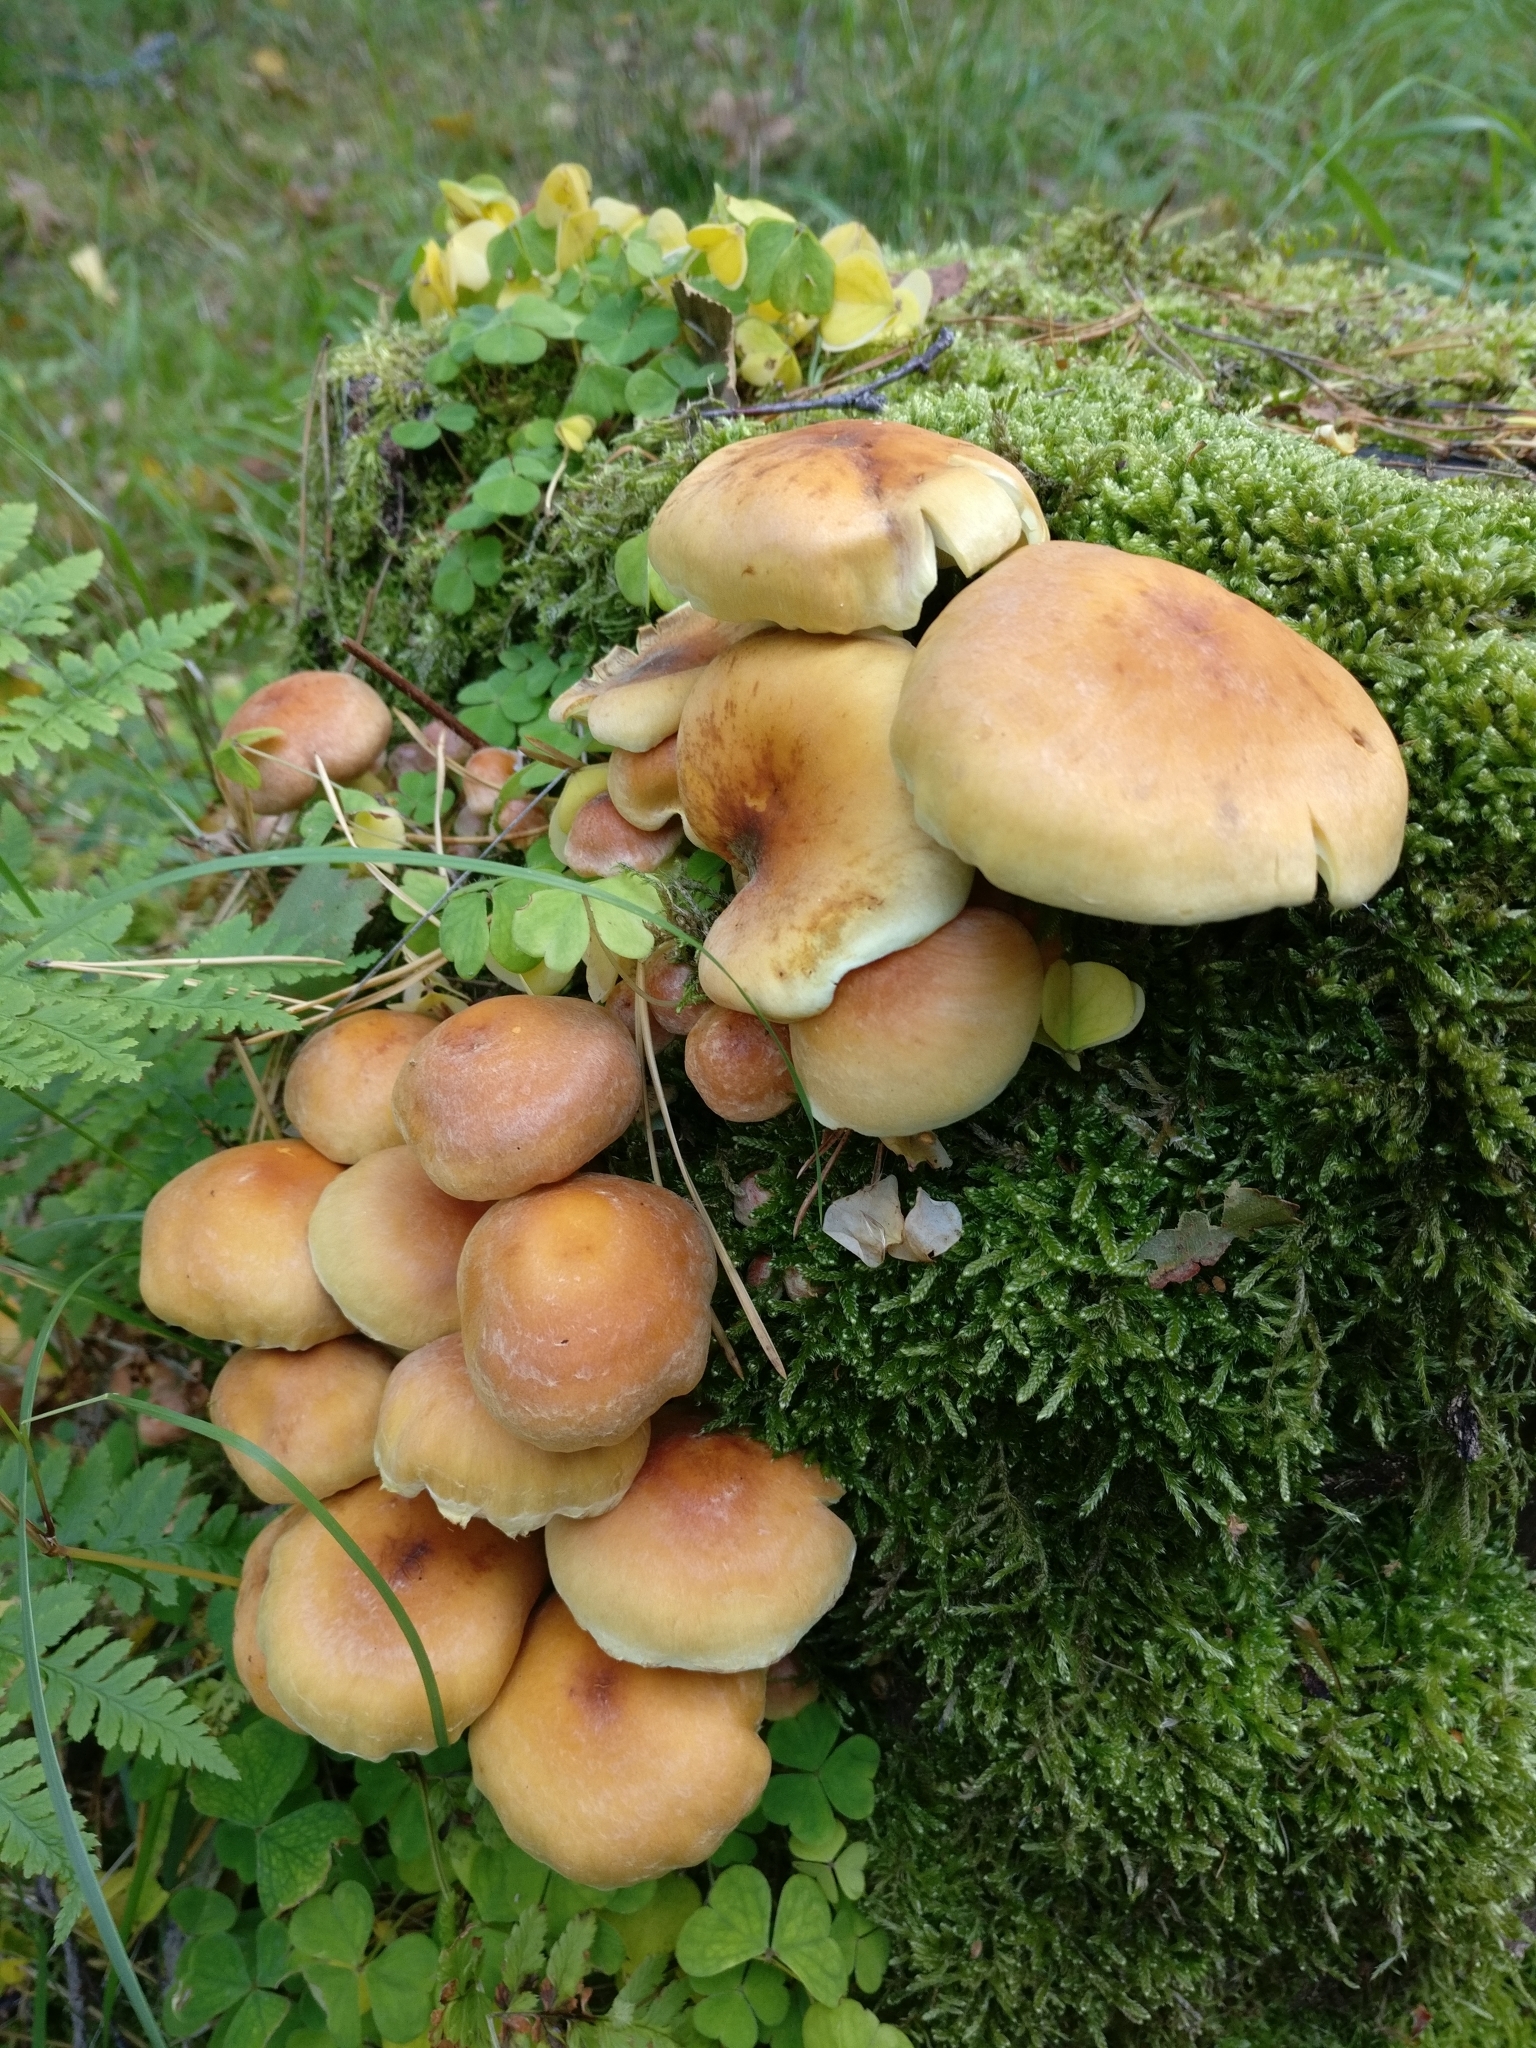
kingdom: Fungi
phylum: Basidiomycota
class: Agaricomycetes
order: Agaricales
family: Strophariaceae
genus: Hypholoma
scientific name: Hypholoma fasciculare
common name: Sulphur tuft
